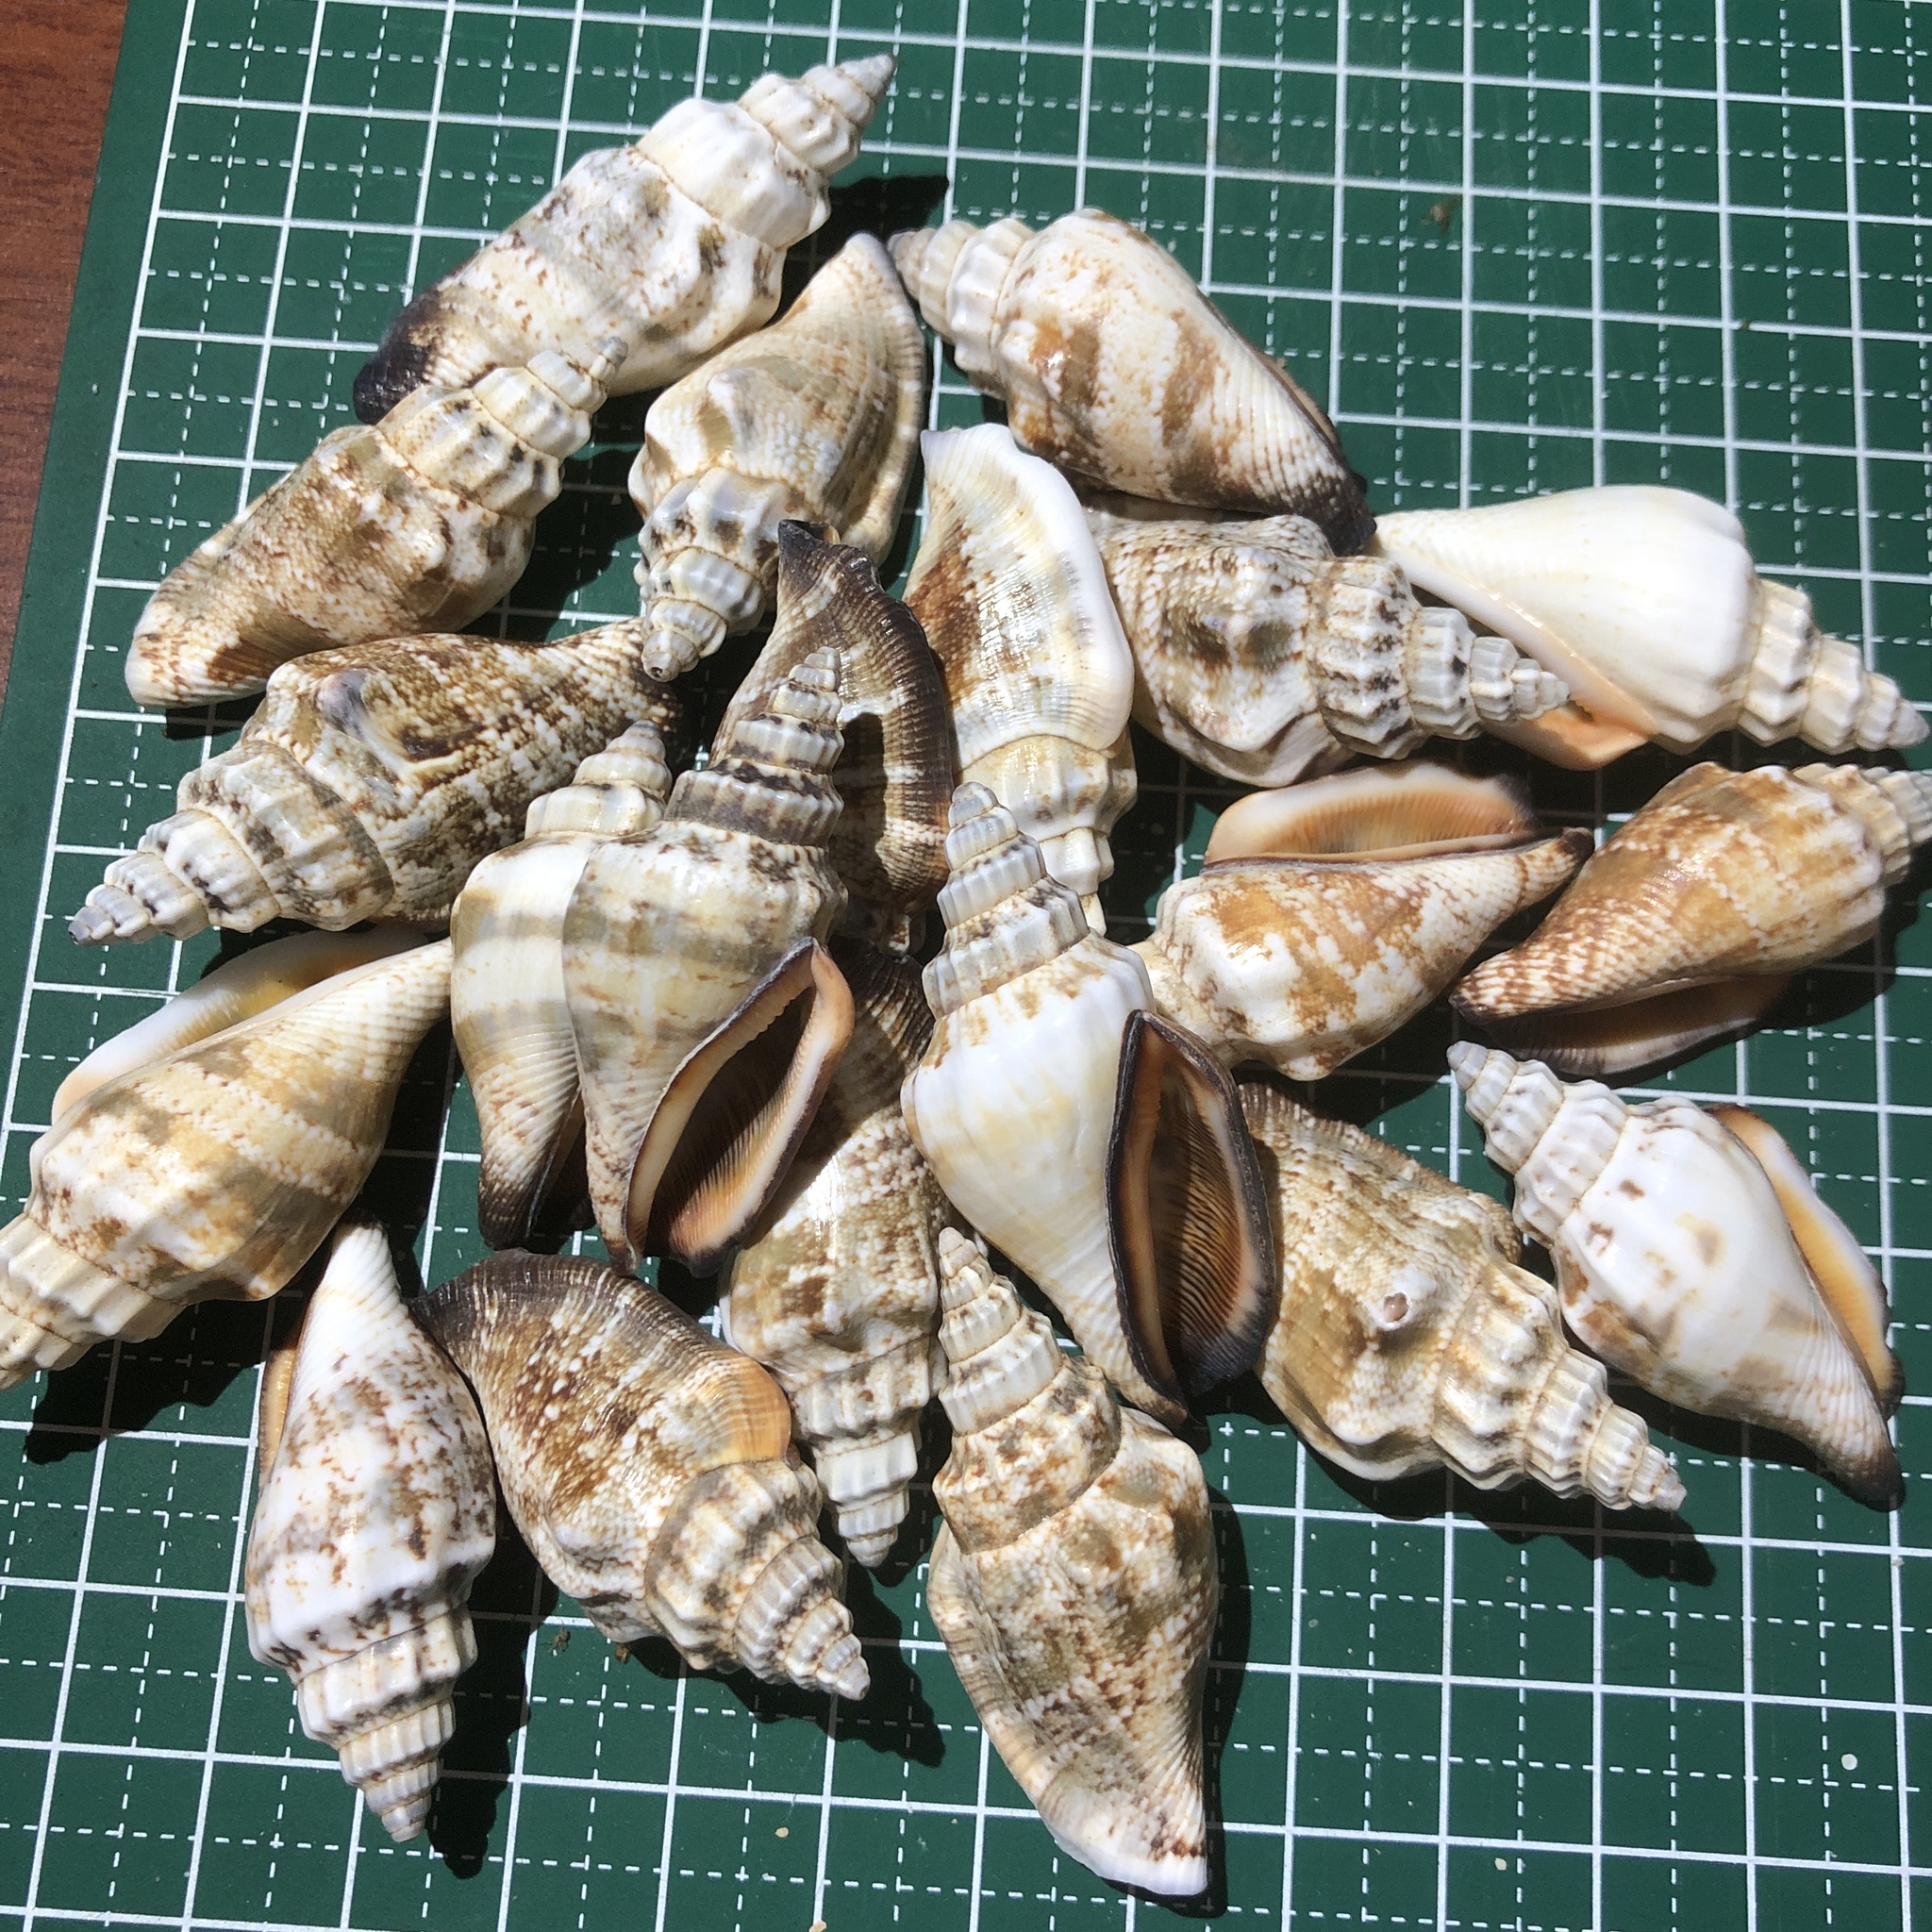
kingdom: Animalia
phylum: Mollusca
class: Gastropoda
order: Littorinimorpha
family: Strombidae
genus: Canarium
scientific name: Canarium urceus
